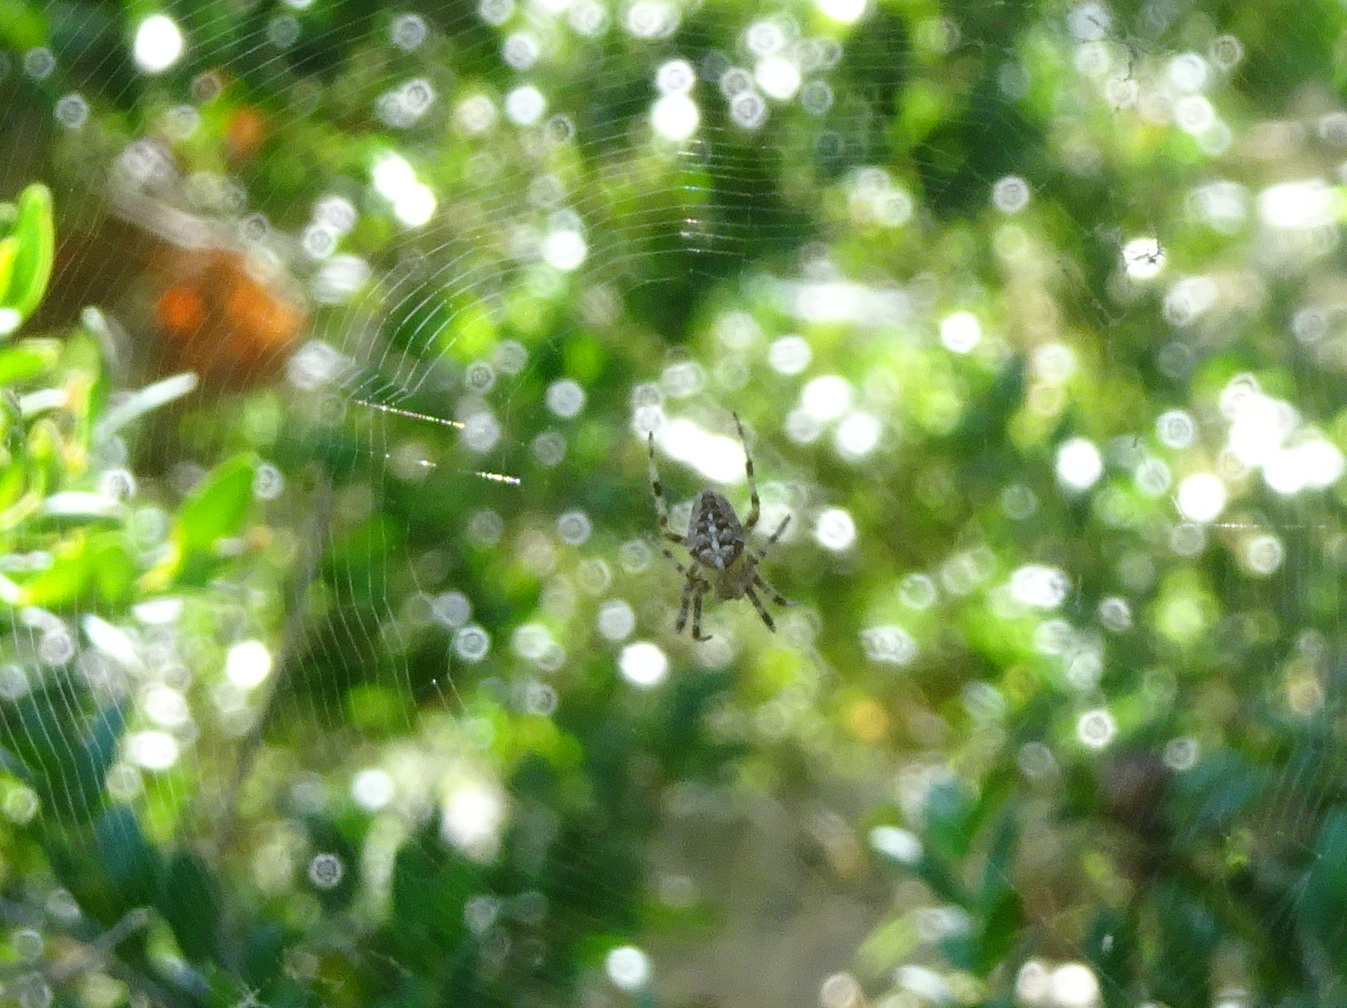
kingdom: Animalia
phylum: Arthropoda
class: Arachnida
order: Araneae
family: Araneidae
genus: Araneus
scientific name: Araneus diadematus
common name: Cross orbweaver
